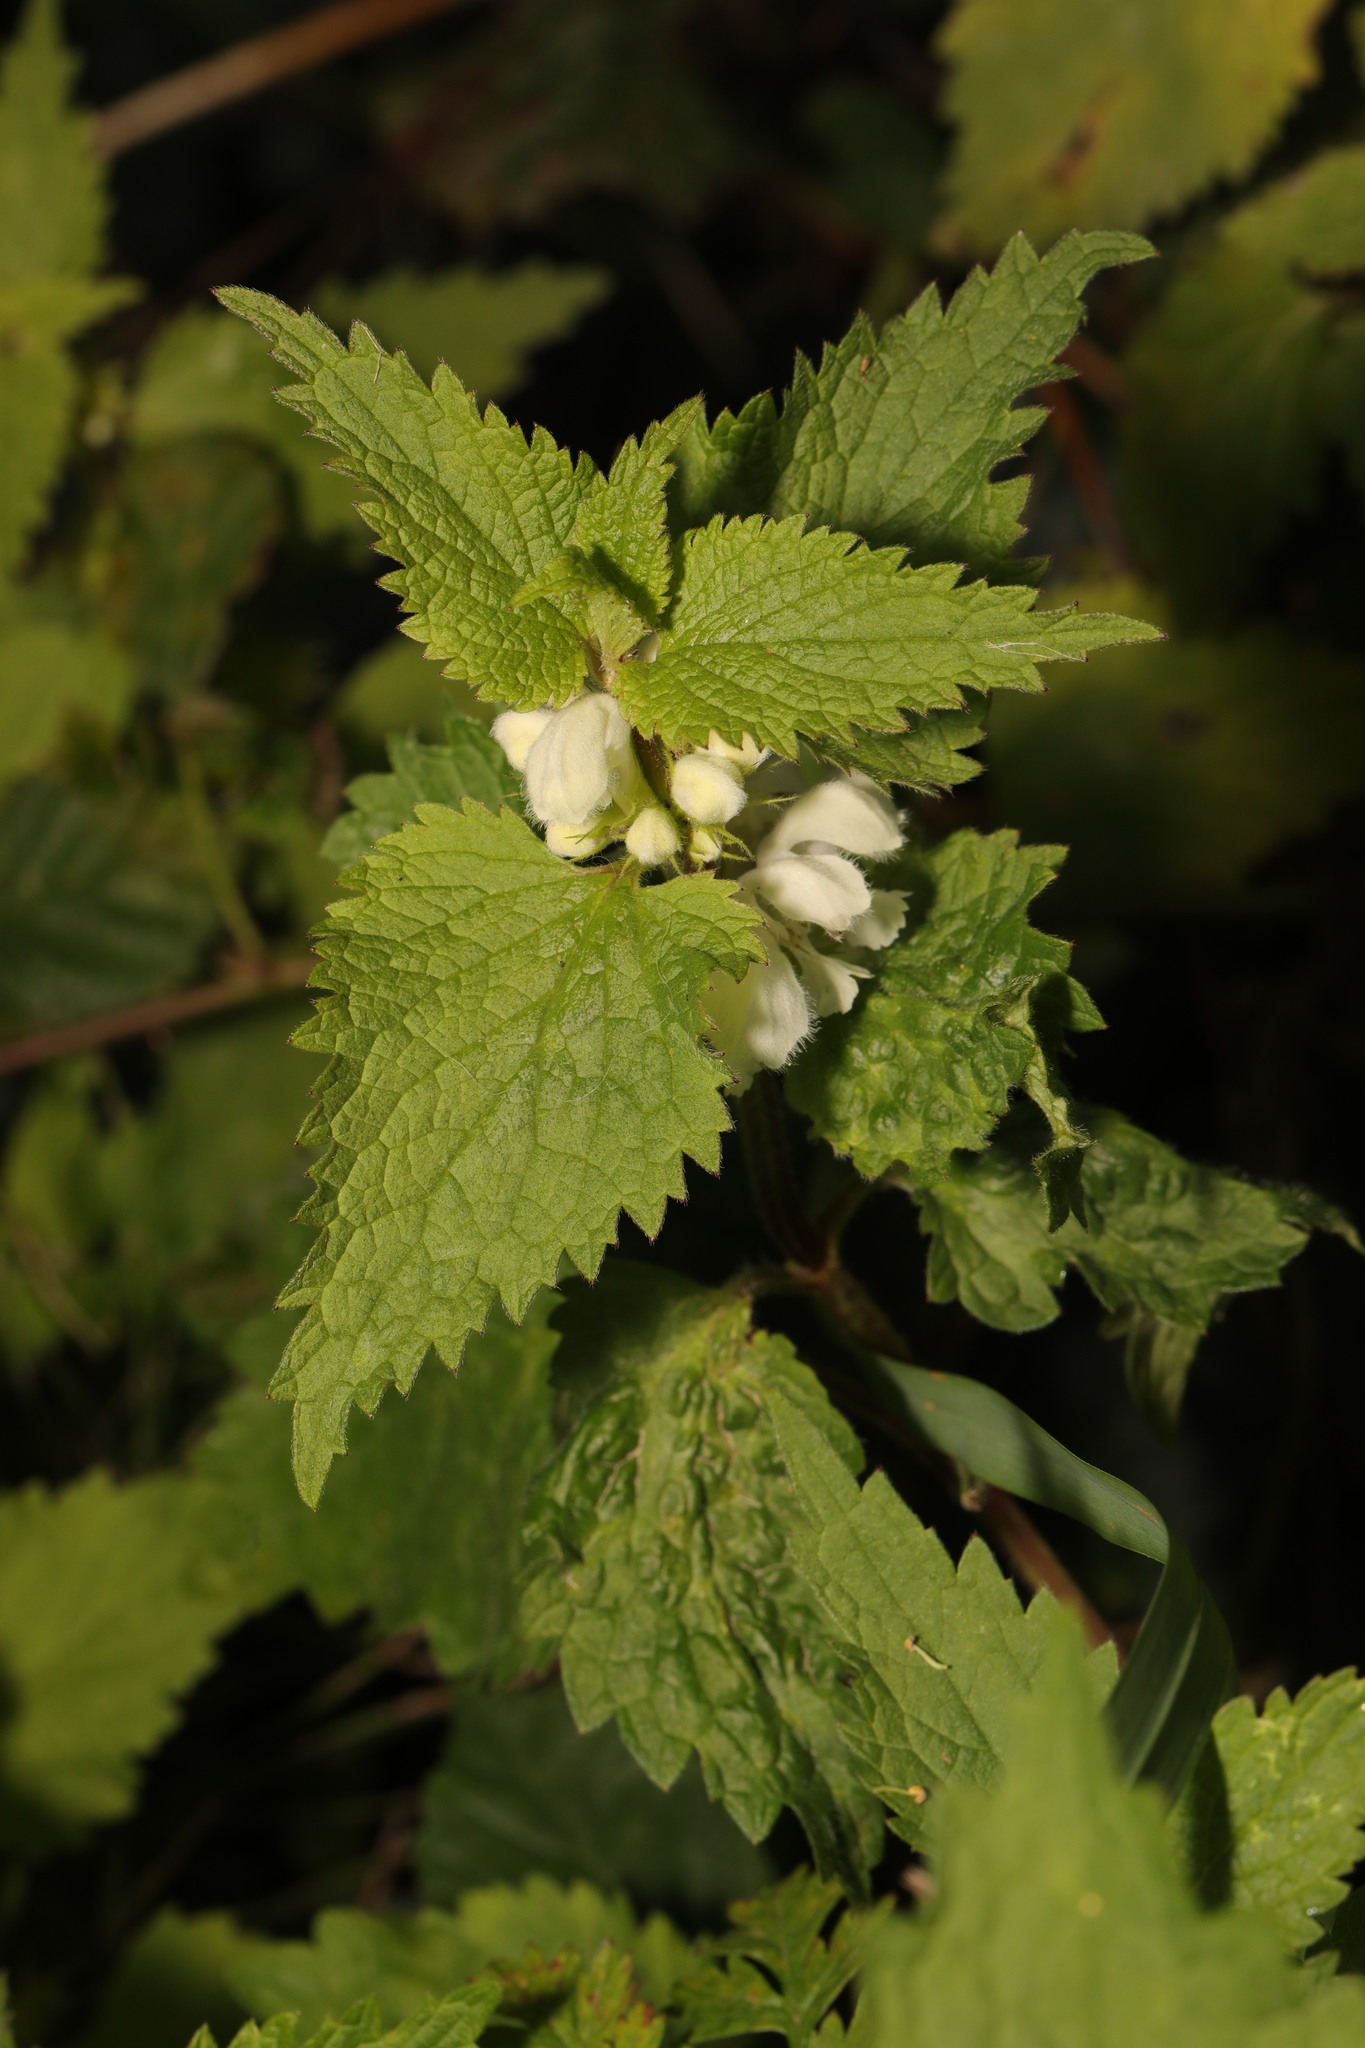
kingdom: Plantae
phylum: Tracheophyta
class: Magnoliopsida
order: Lamiales
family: Lamiaceae
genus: Lamium
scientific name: Lamium album
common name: White dead-nettle
